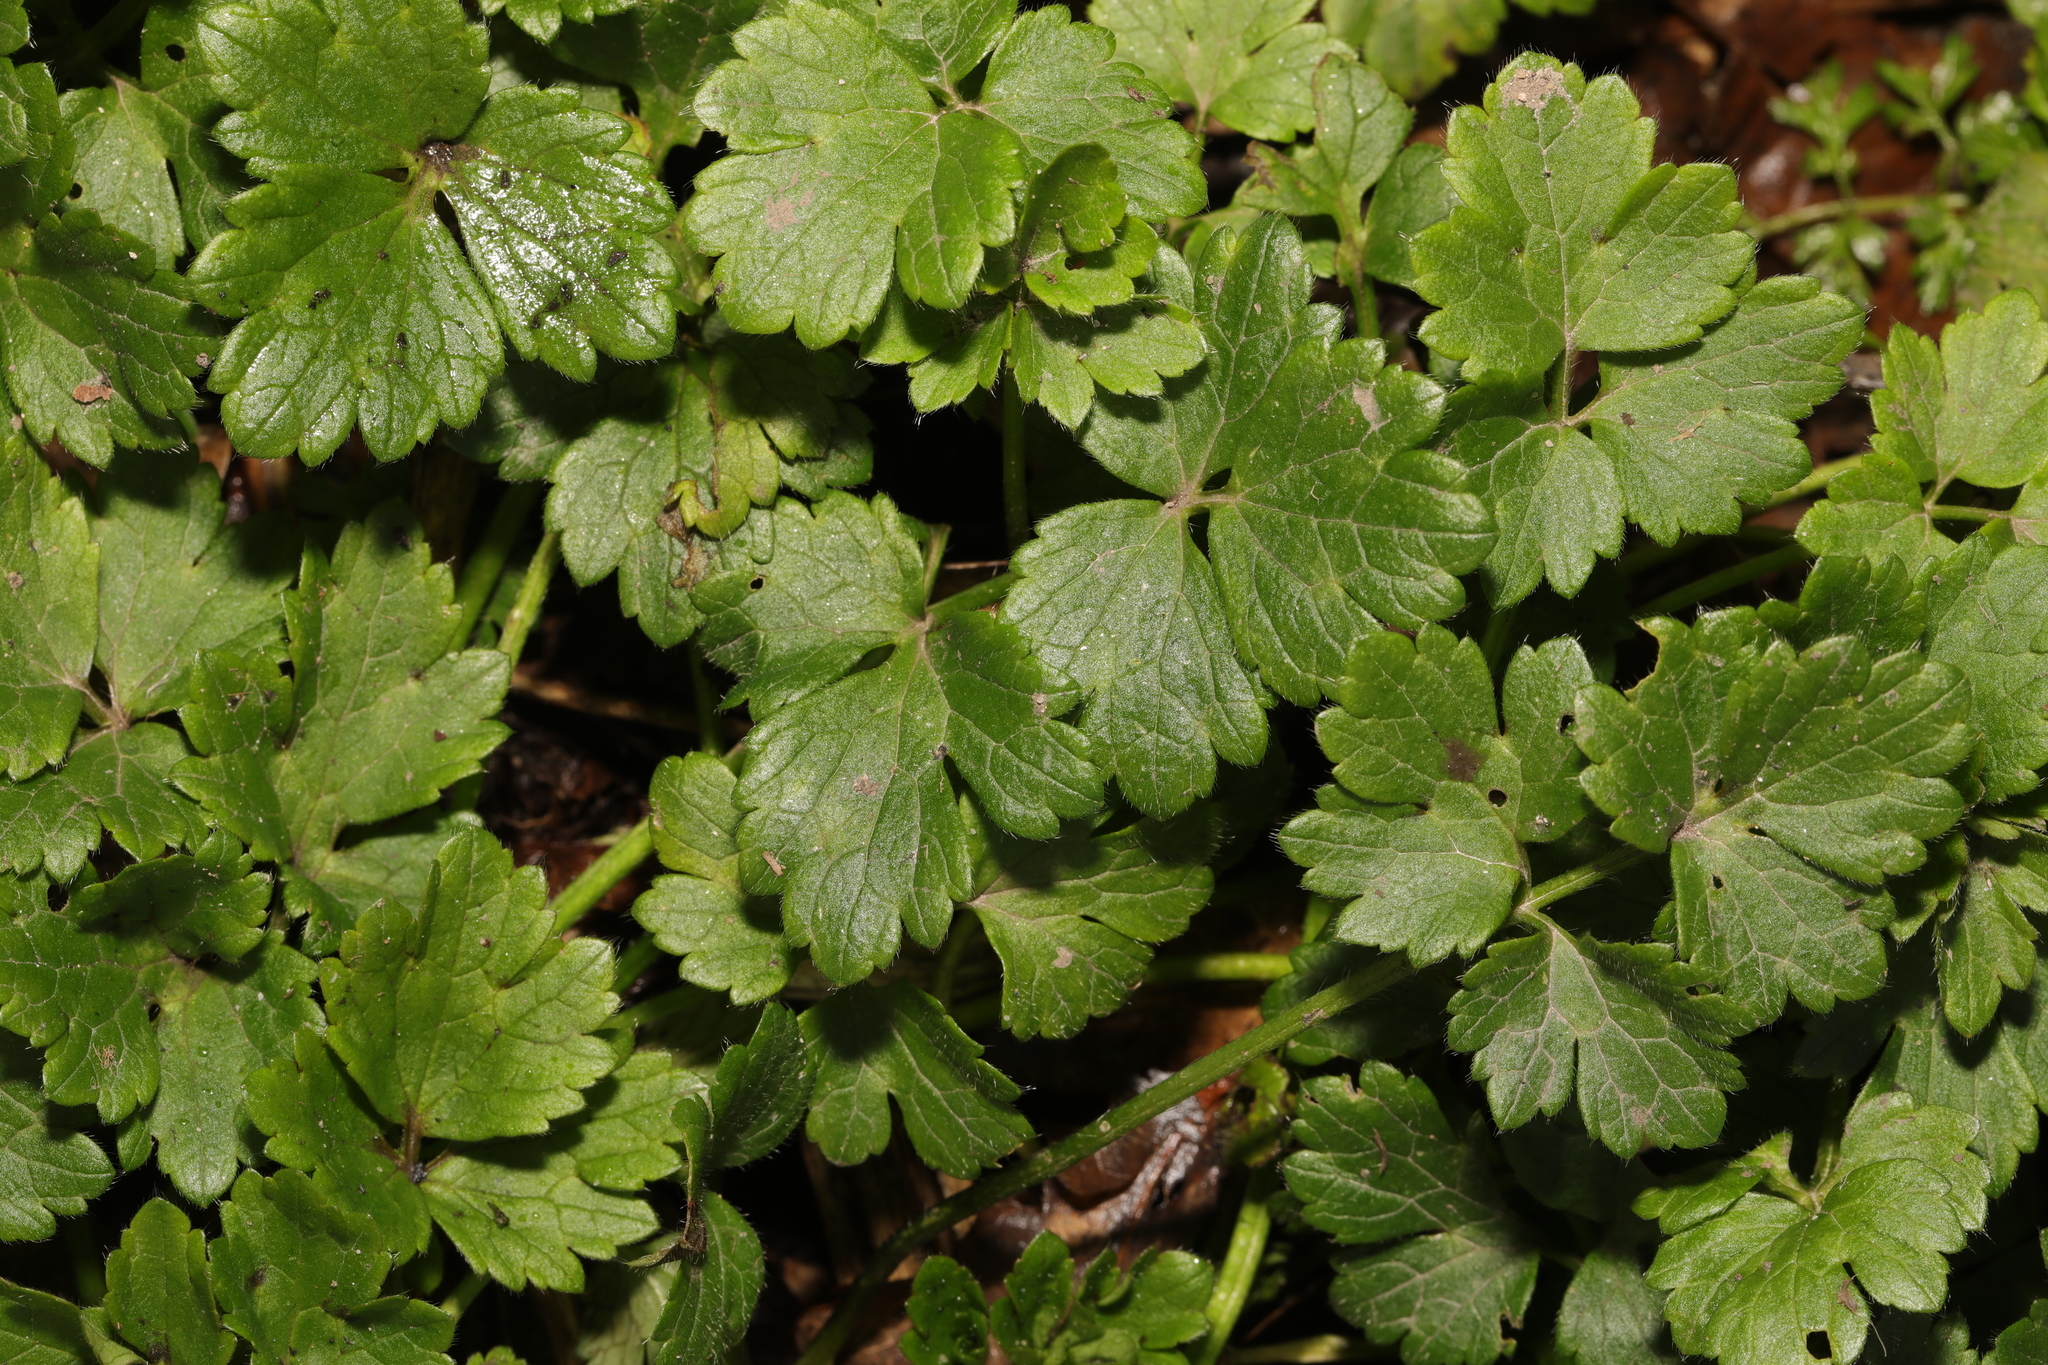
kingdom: Plantae
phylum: Tracheophyta
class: Magnoliopsida
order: Ranunculales
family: Ranunculaceae
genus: Ranunculus
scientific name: Ranunculus repens
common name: Creeping buttercup
